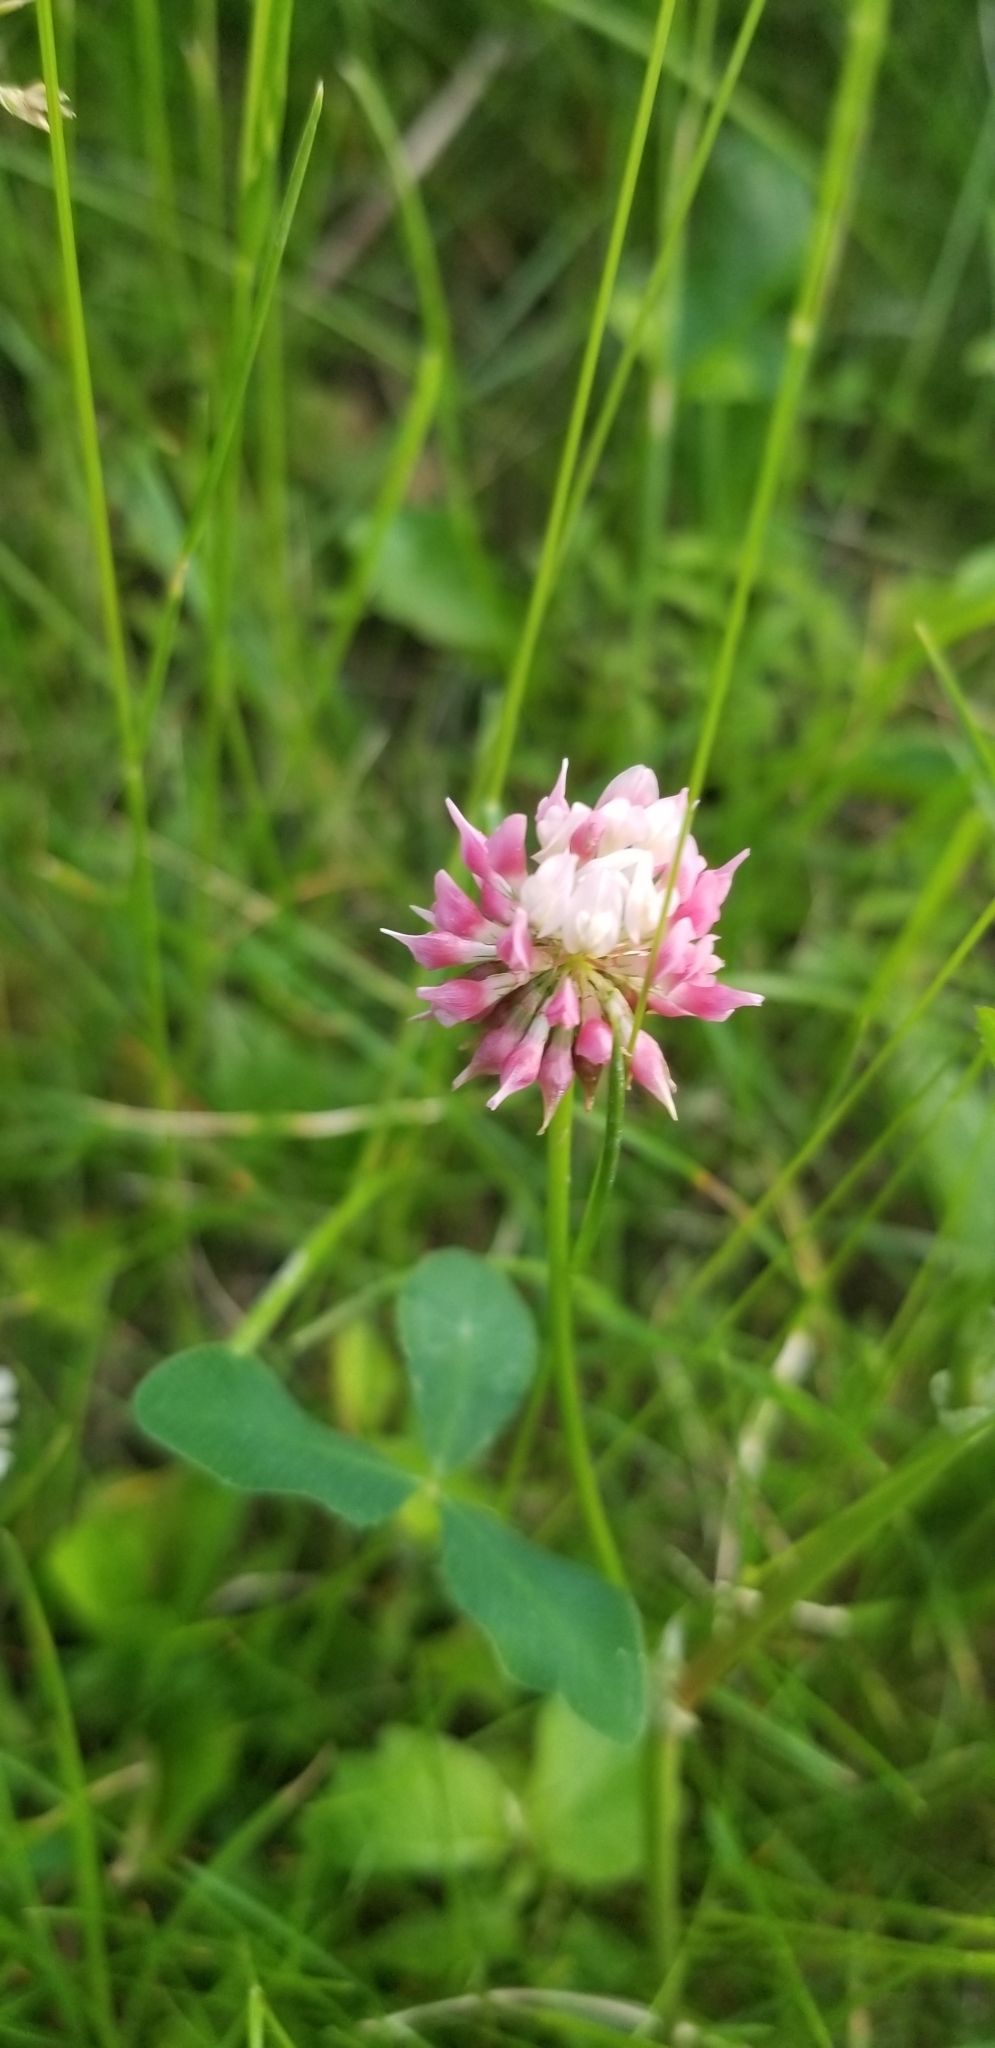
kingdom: Plantae
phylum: Tracheophyta
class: Magnoliopsida
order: Fabales
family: Fabaceae
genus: Trifolium
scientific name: Trifolium hybridum
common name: Alsike clover
